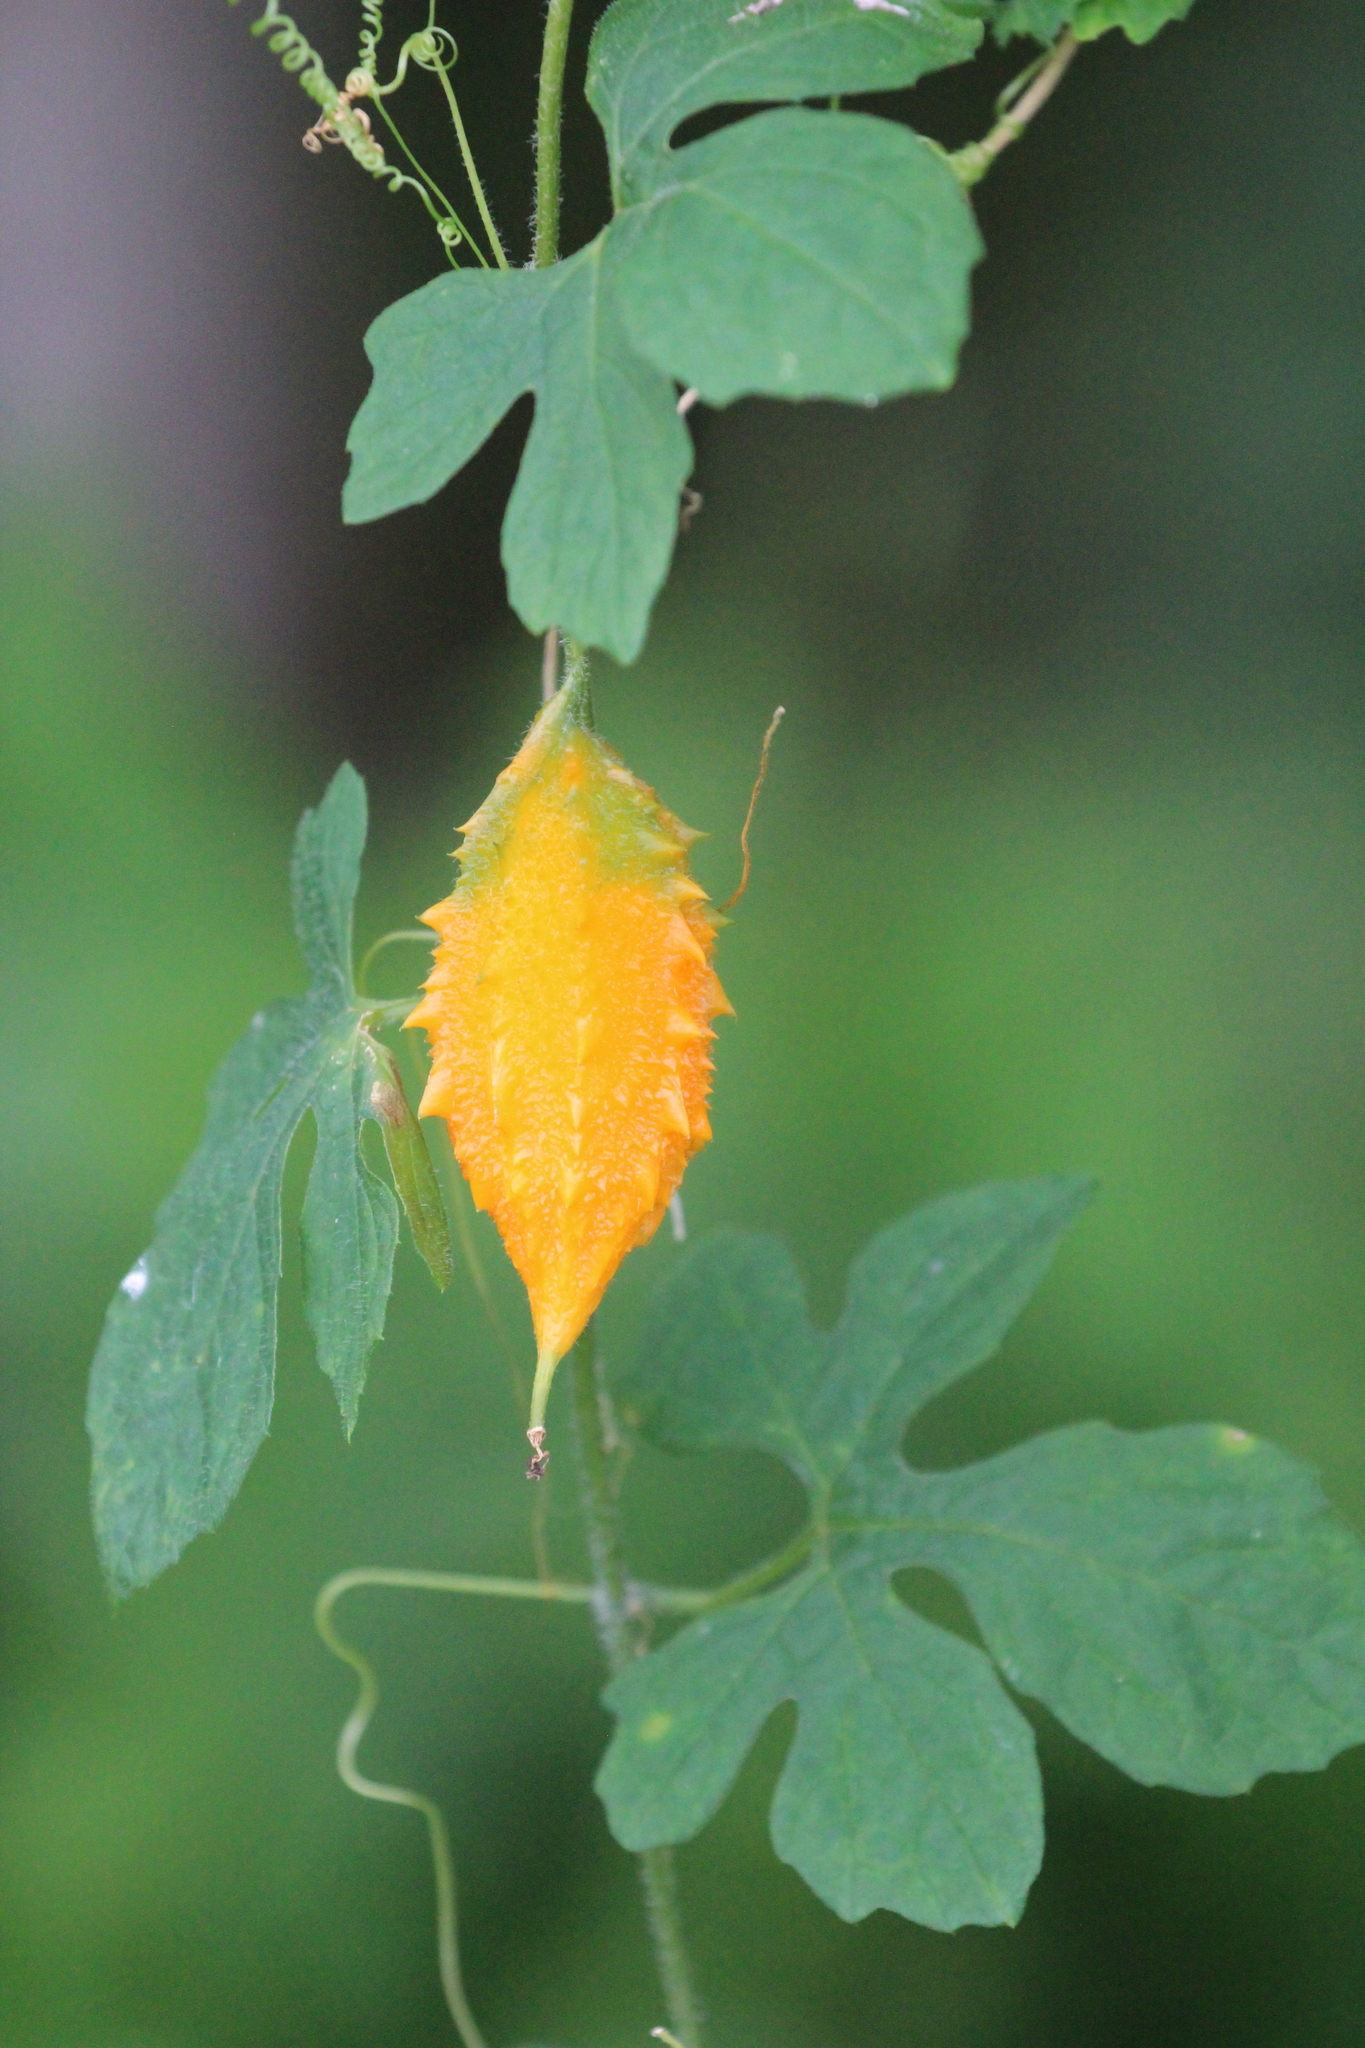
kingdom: Plantae
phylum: Tracheophyta
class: Magnoliopsida
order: Cucurbitales
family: Cucurbitaceae
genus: Momordica
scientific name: Momordica charantia
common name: Balsampear
